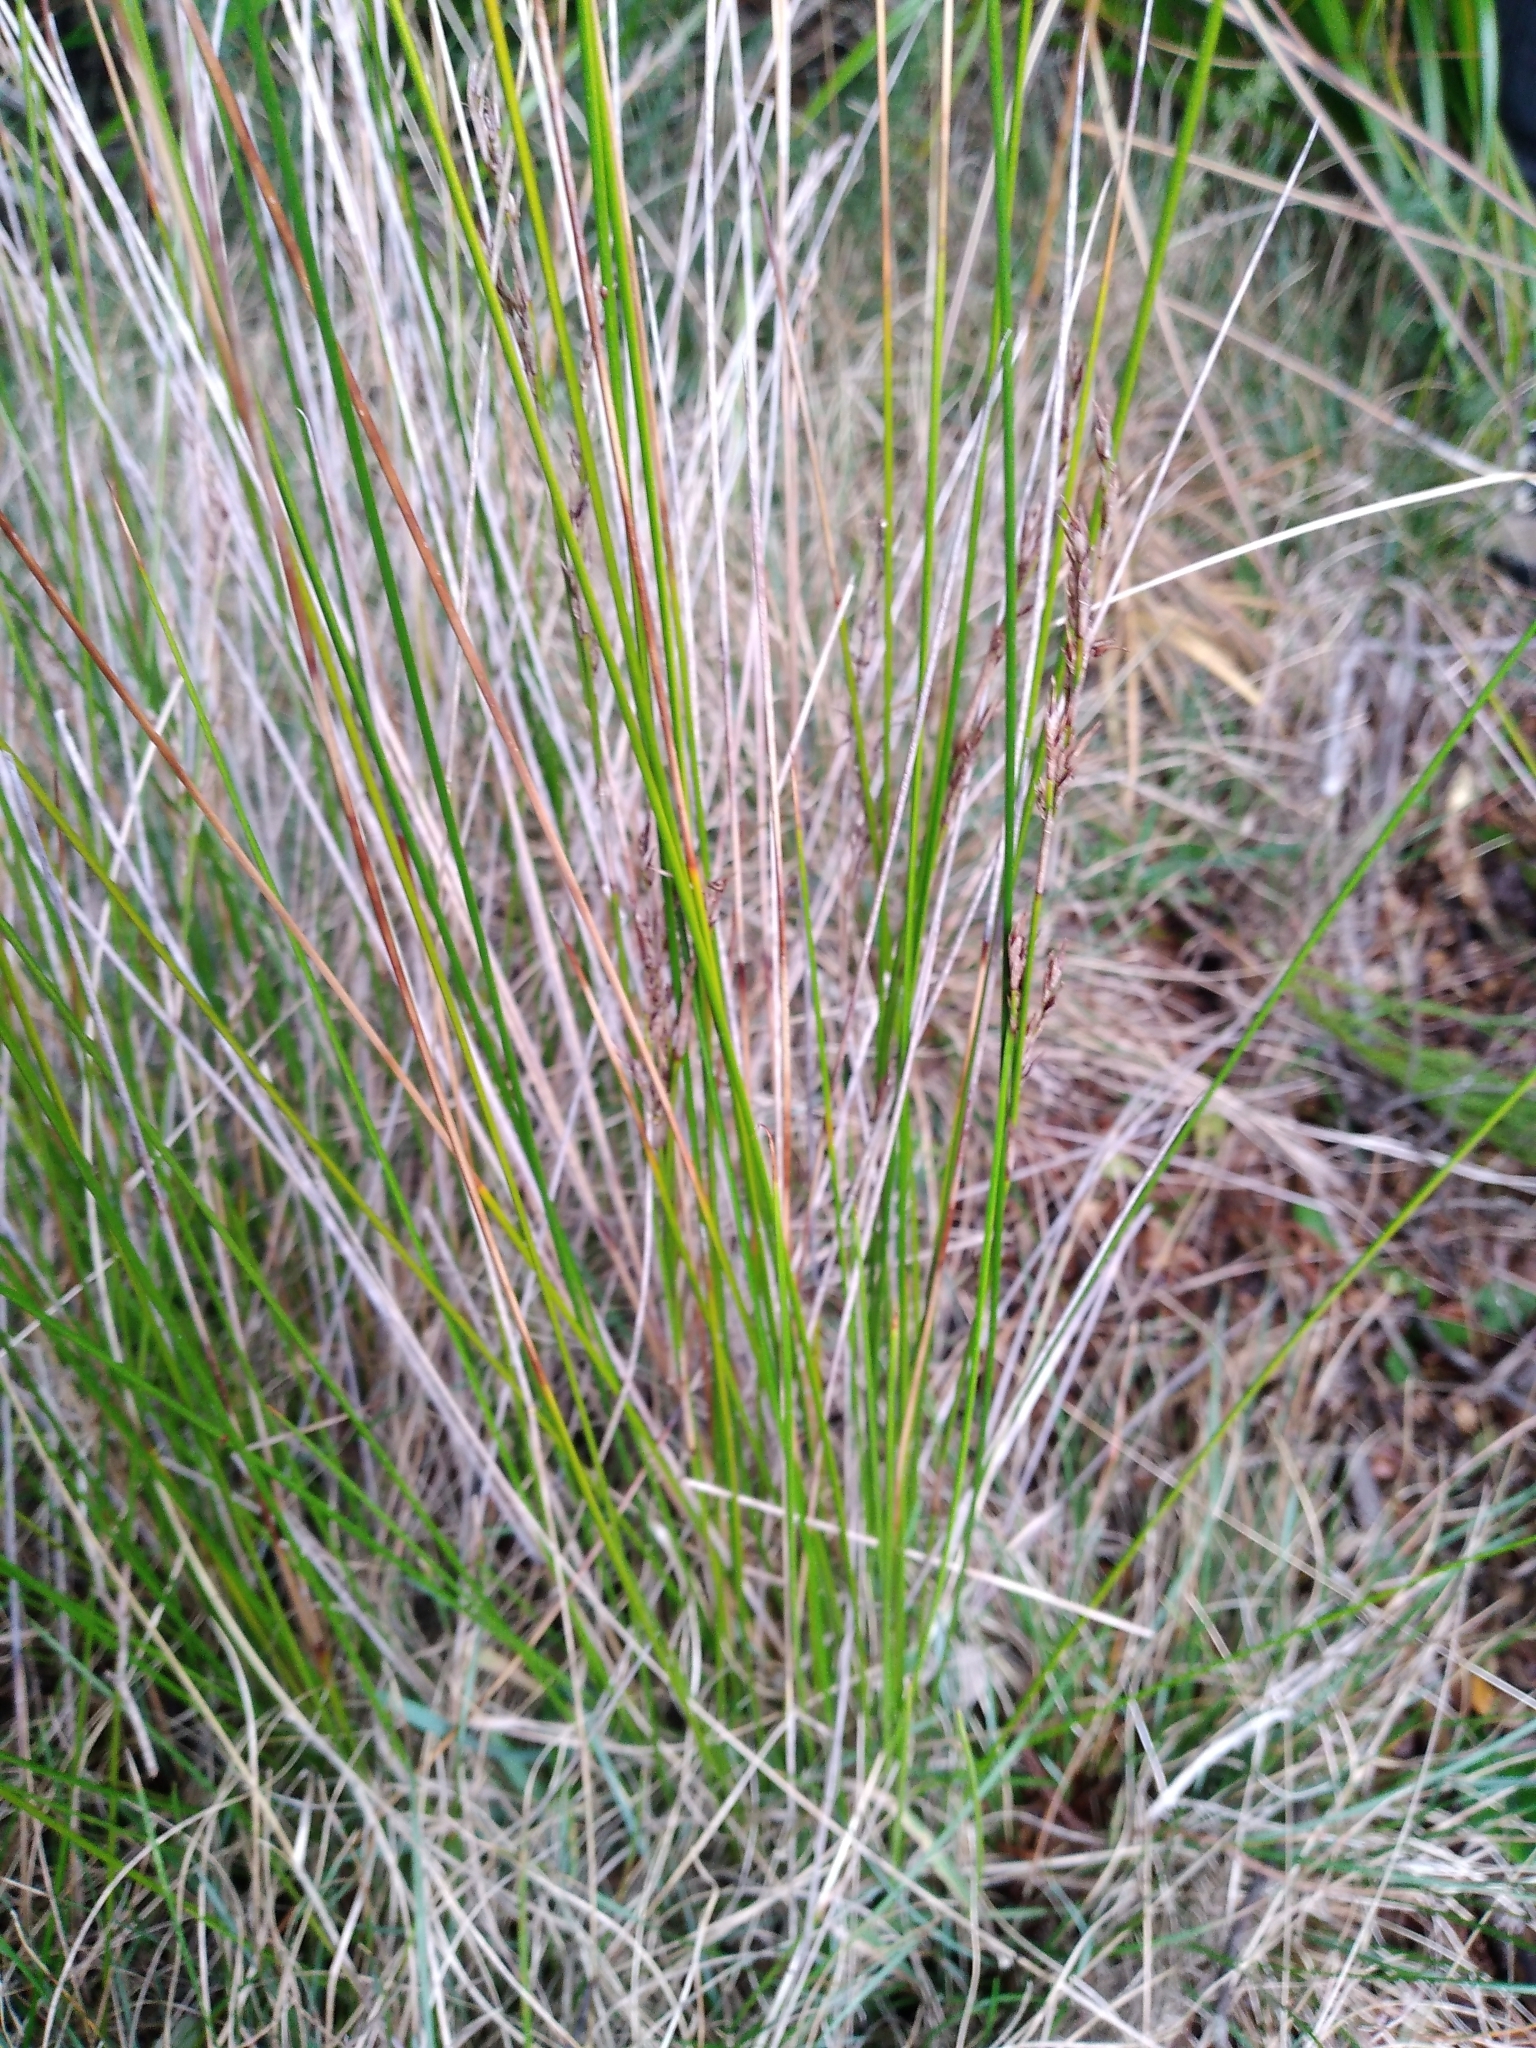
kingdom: Plantae
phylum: Tracheophyta
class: Liliopsida
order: Poales
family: Cyperaceae
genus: Machaerina
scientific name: Machaerina tenax
